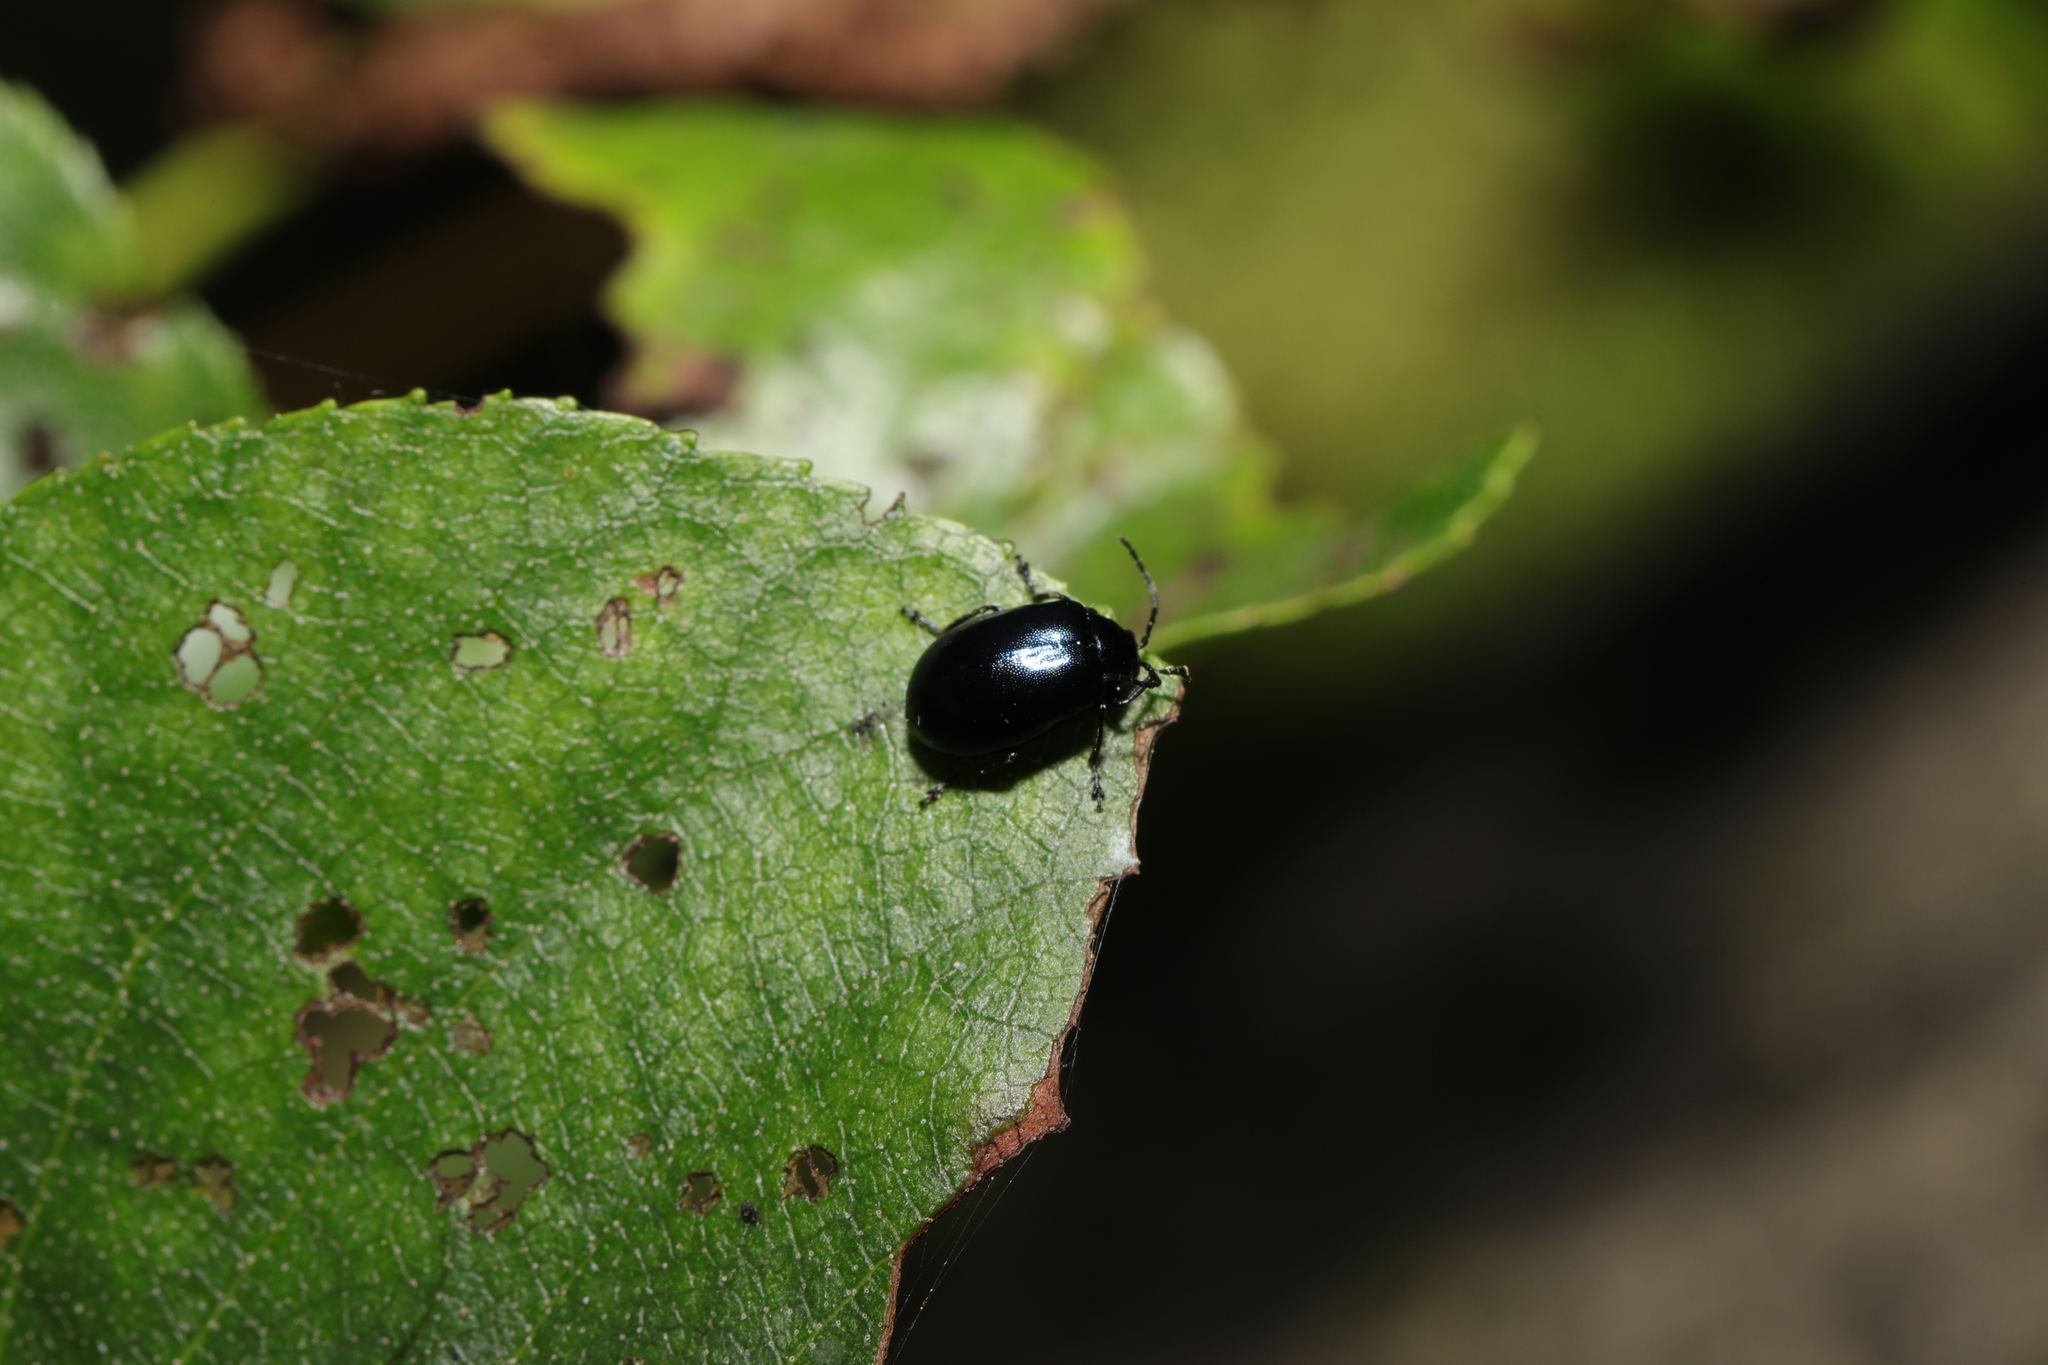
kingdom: Animalia
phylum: Arthropoda
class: Insecta
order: Coleoptera
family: Chrysomelidae
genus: Agelastica
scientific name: Agelastica alni
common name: Alder leaf beetle
